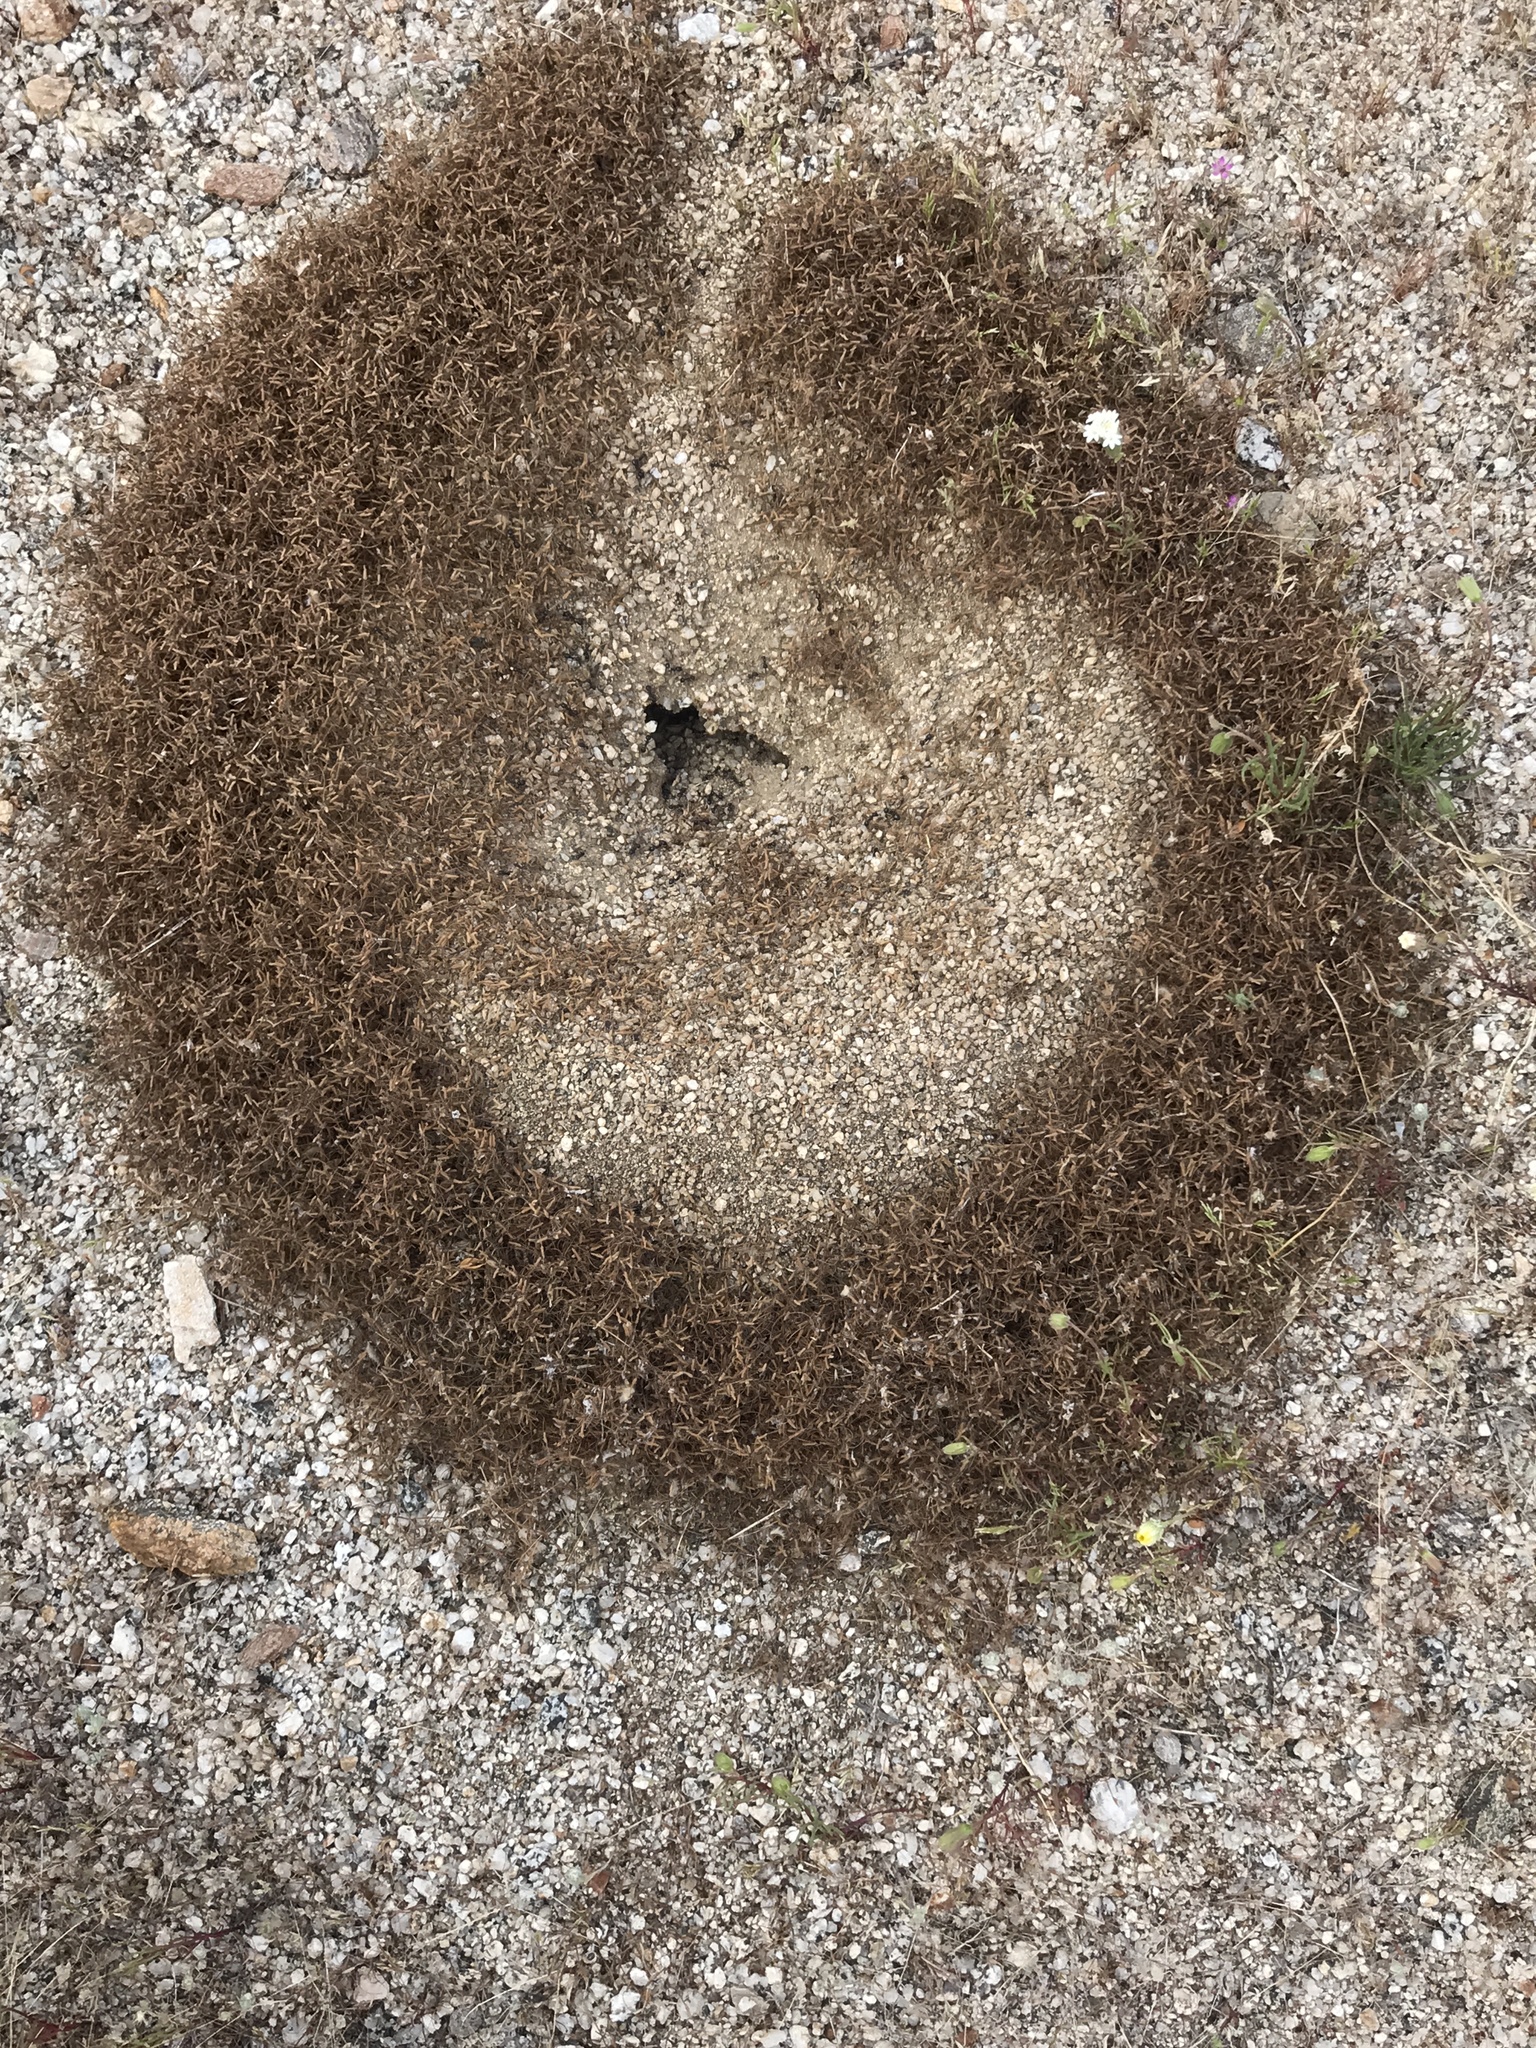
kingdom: Animalia
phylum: Arthropoda
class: Insecta
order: Hymenoptera
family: Formicidae
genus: Messor
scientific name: Messor pergandei
